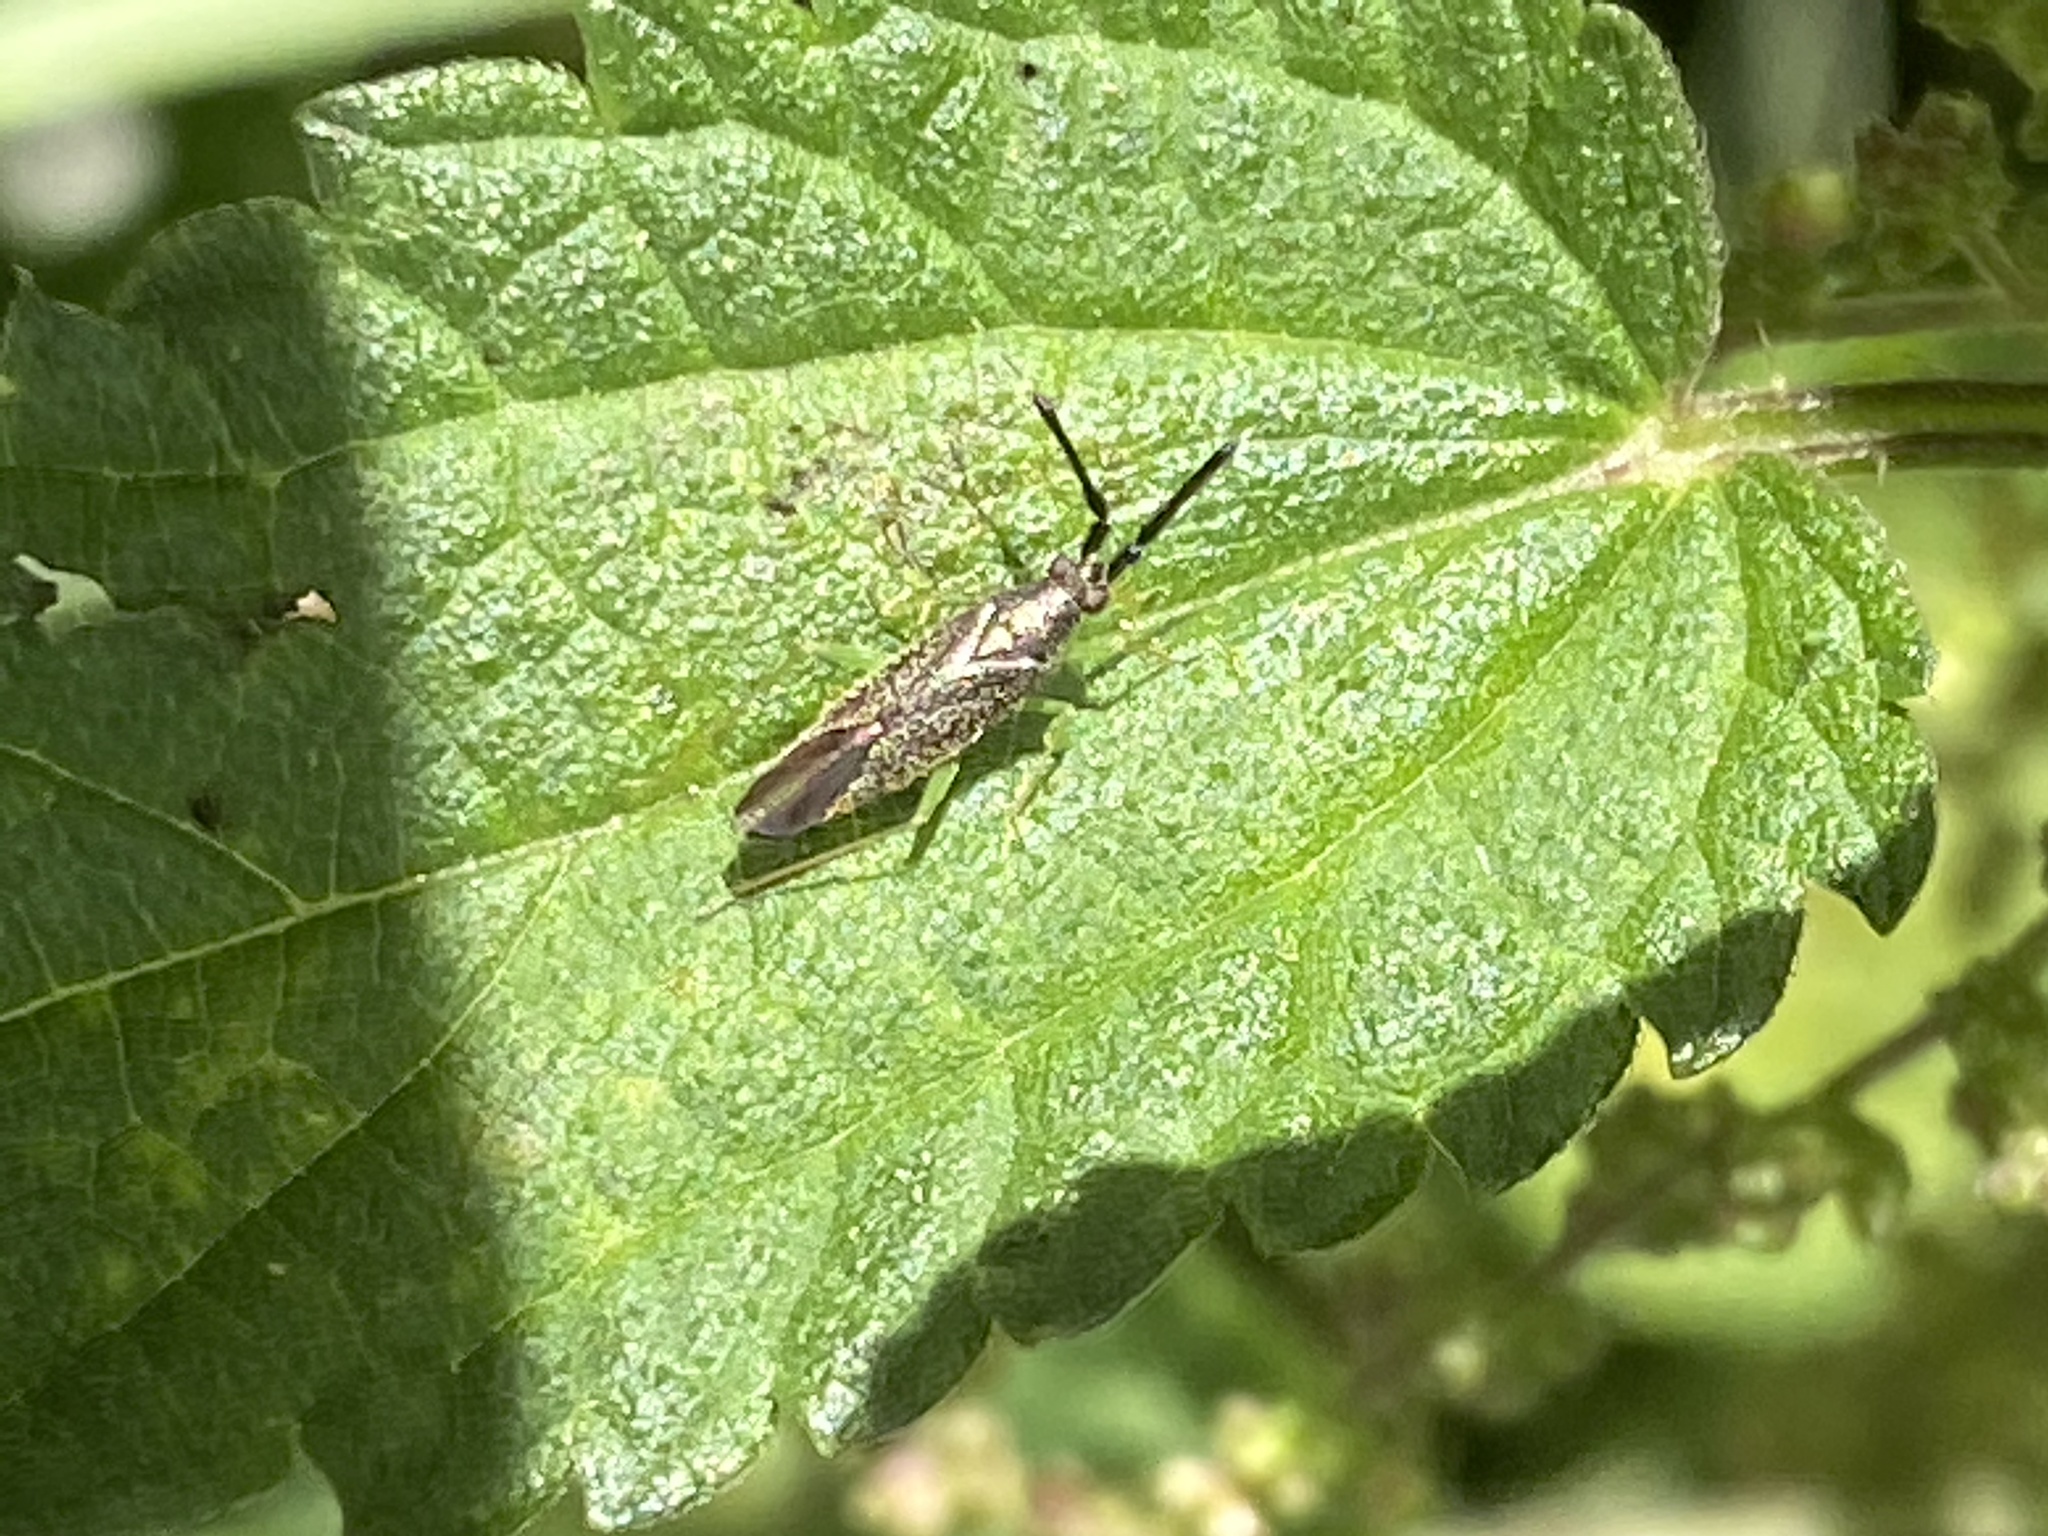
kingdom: Animalia
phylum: Arthropoda
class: Insecta
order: Hemiptera
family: Miridae
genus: Heterotoma
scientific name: Heterotoma planicornis
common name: Plant bug
